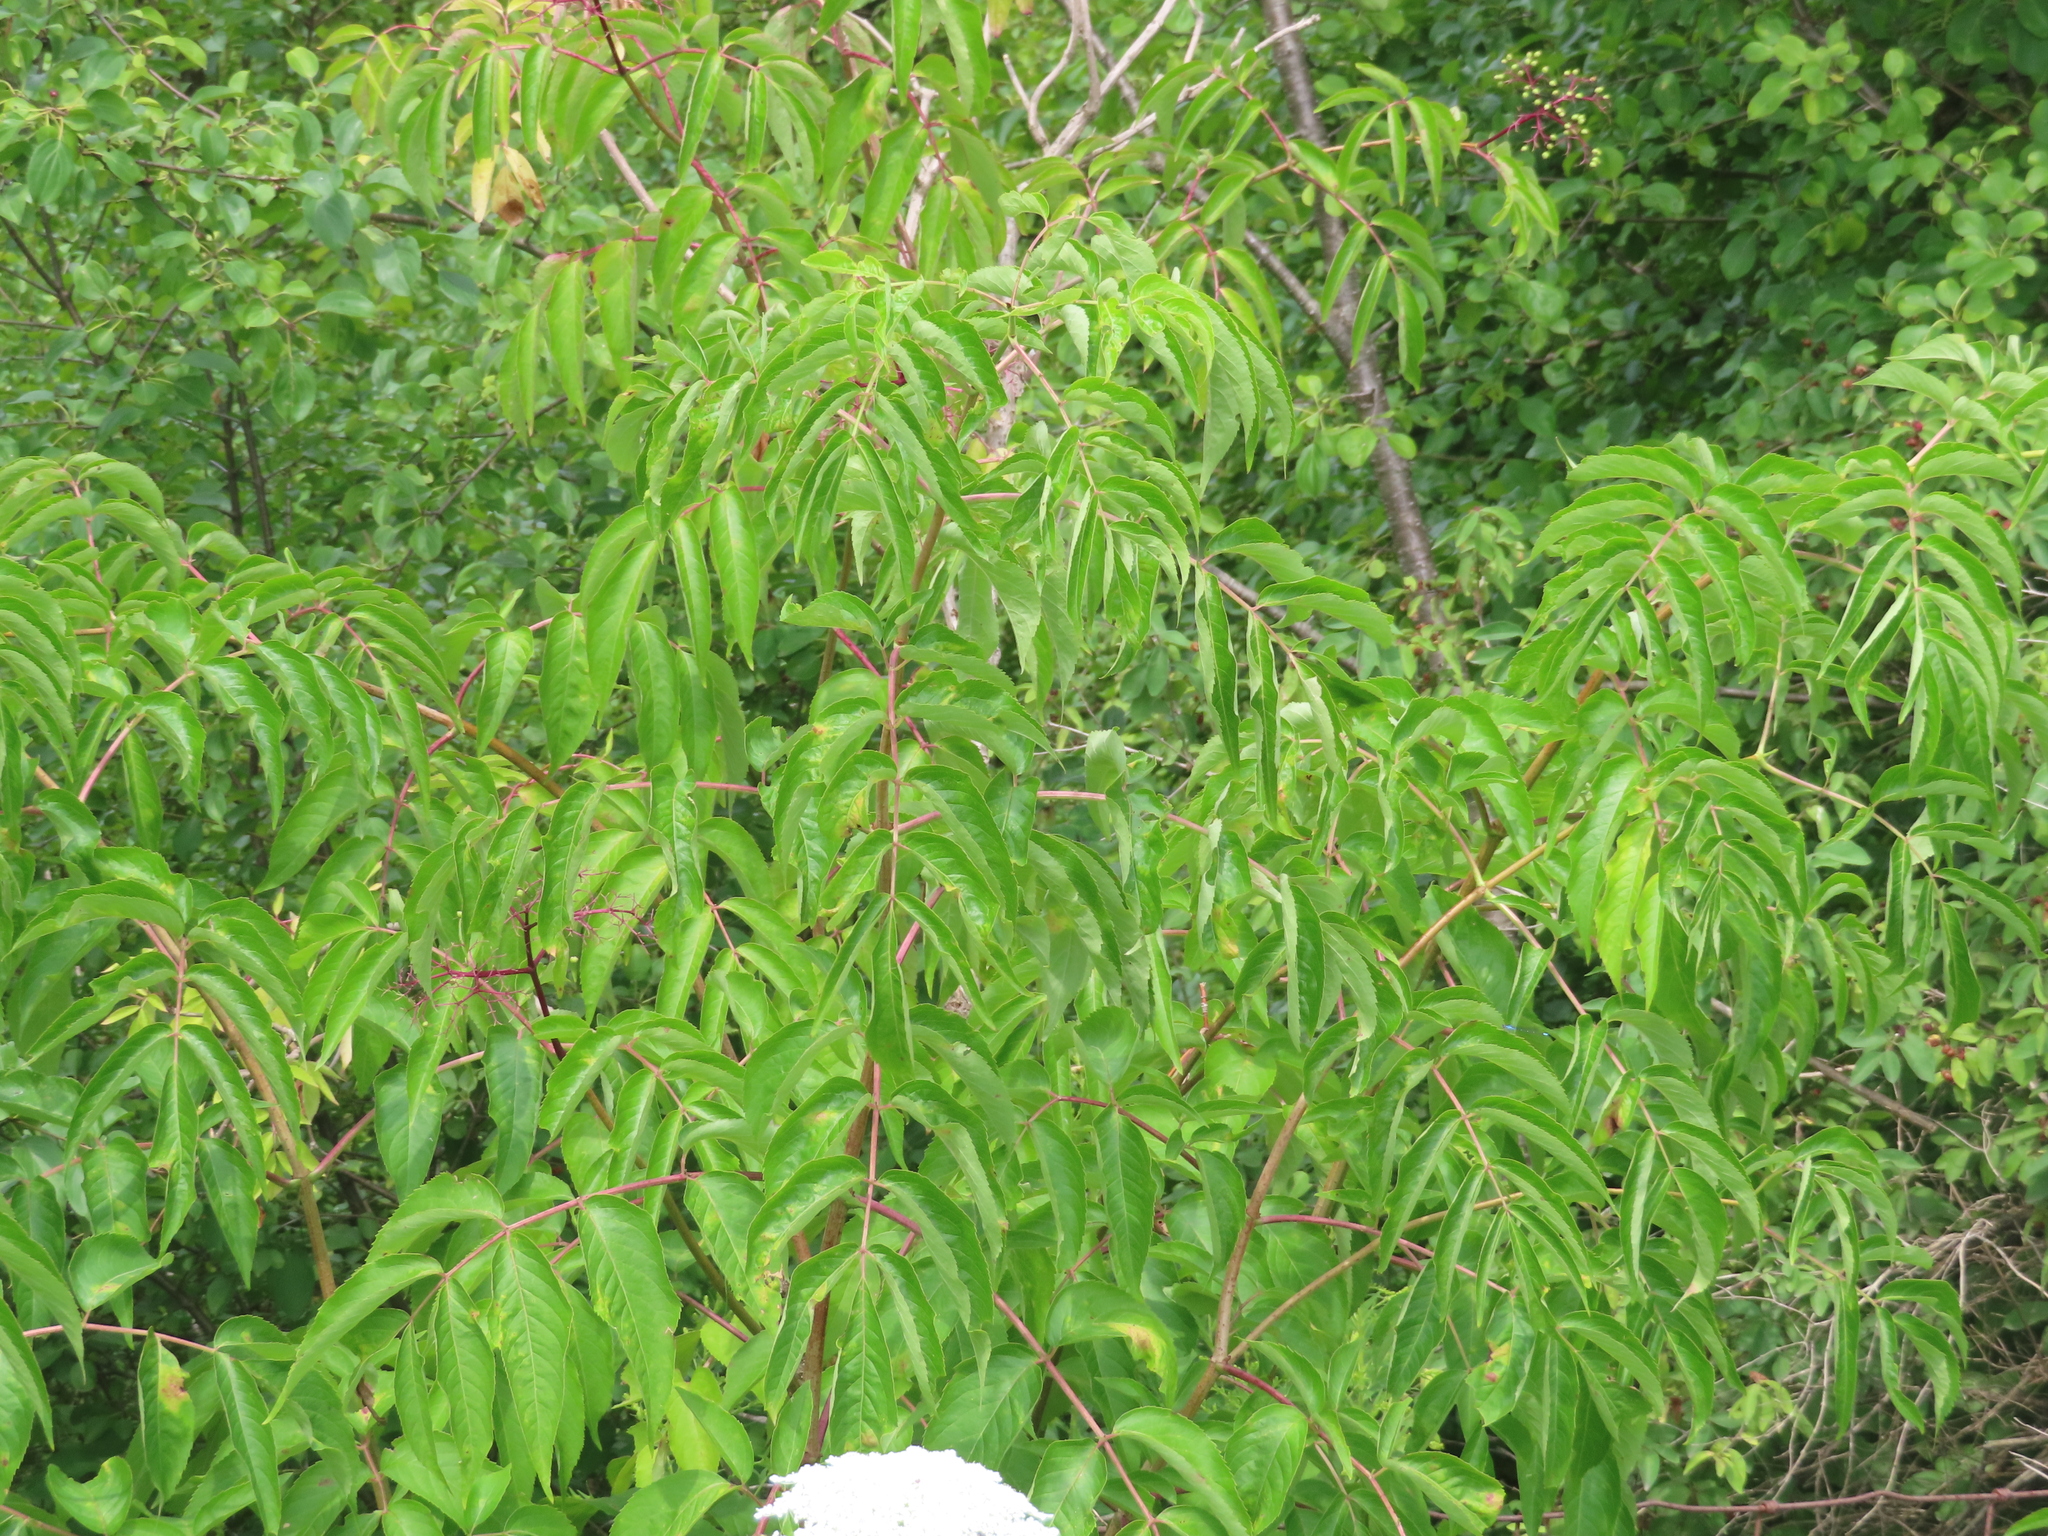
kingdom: Plantae
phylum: Tracheophyta
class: Magnoliopsida
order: Dipsacales
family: Viburnaceae
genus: Sambucus
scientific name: Sambucus canadensis
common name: American elder
